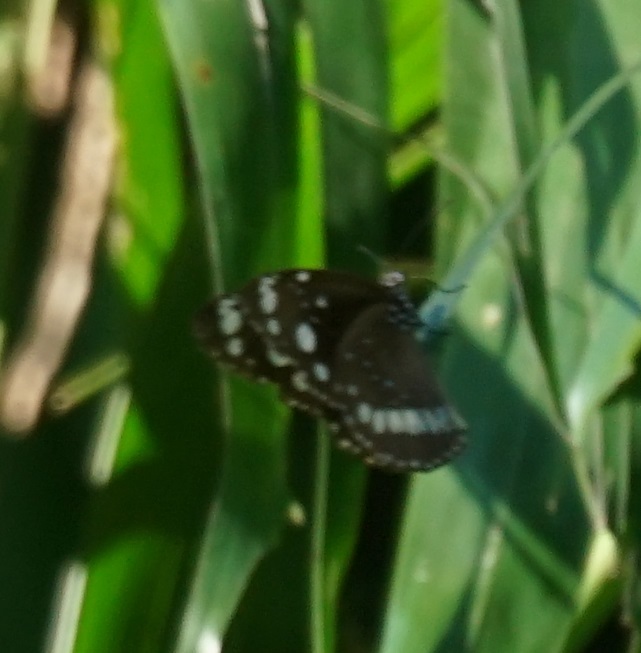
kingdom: Animalia
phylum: Arthropoda
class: Insecta
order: Lepidoptera
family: Nymphalidae
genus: Euploea
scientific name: Euploea core
